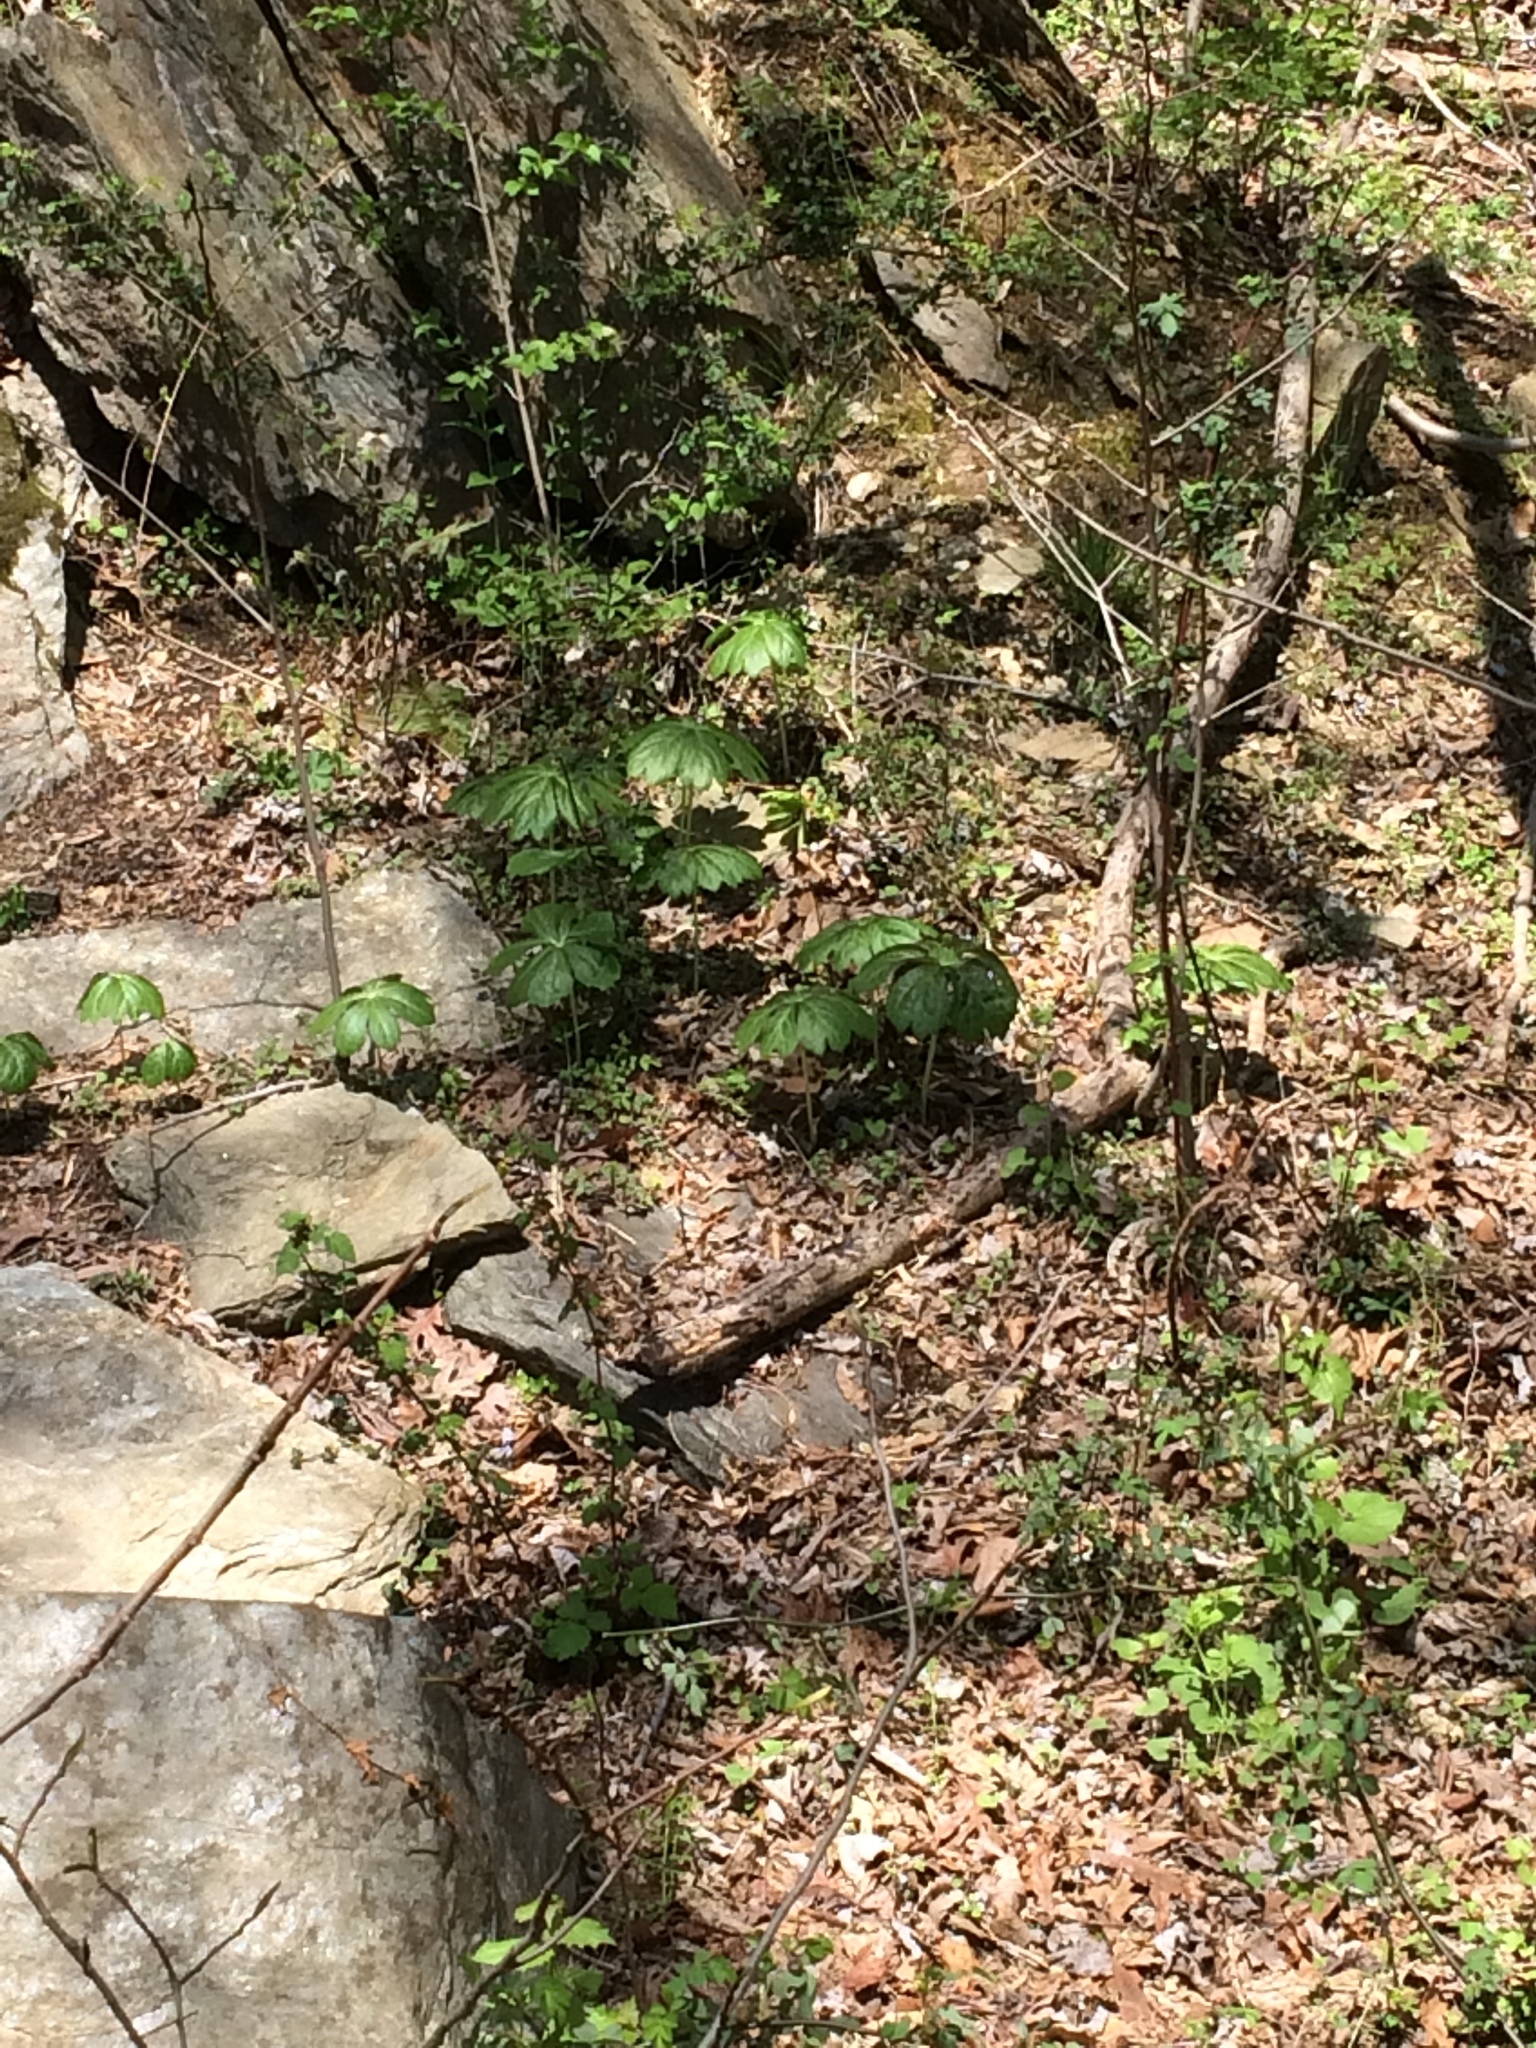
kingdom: Plantae
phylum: Tracheophyta
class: Magnoliopsida
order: Ranunculales
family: Berberidaceae
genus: Podophyllum
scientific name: Podophyllum peltatum
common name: Wild mandrake
